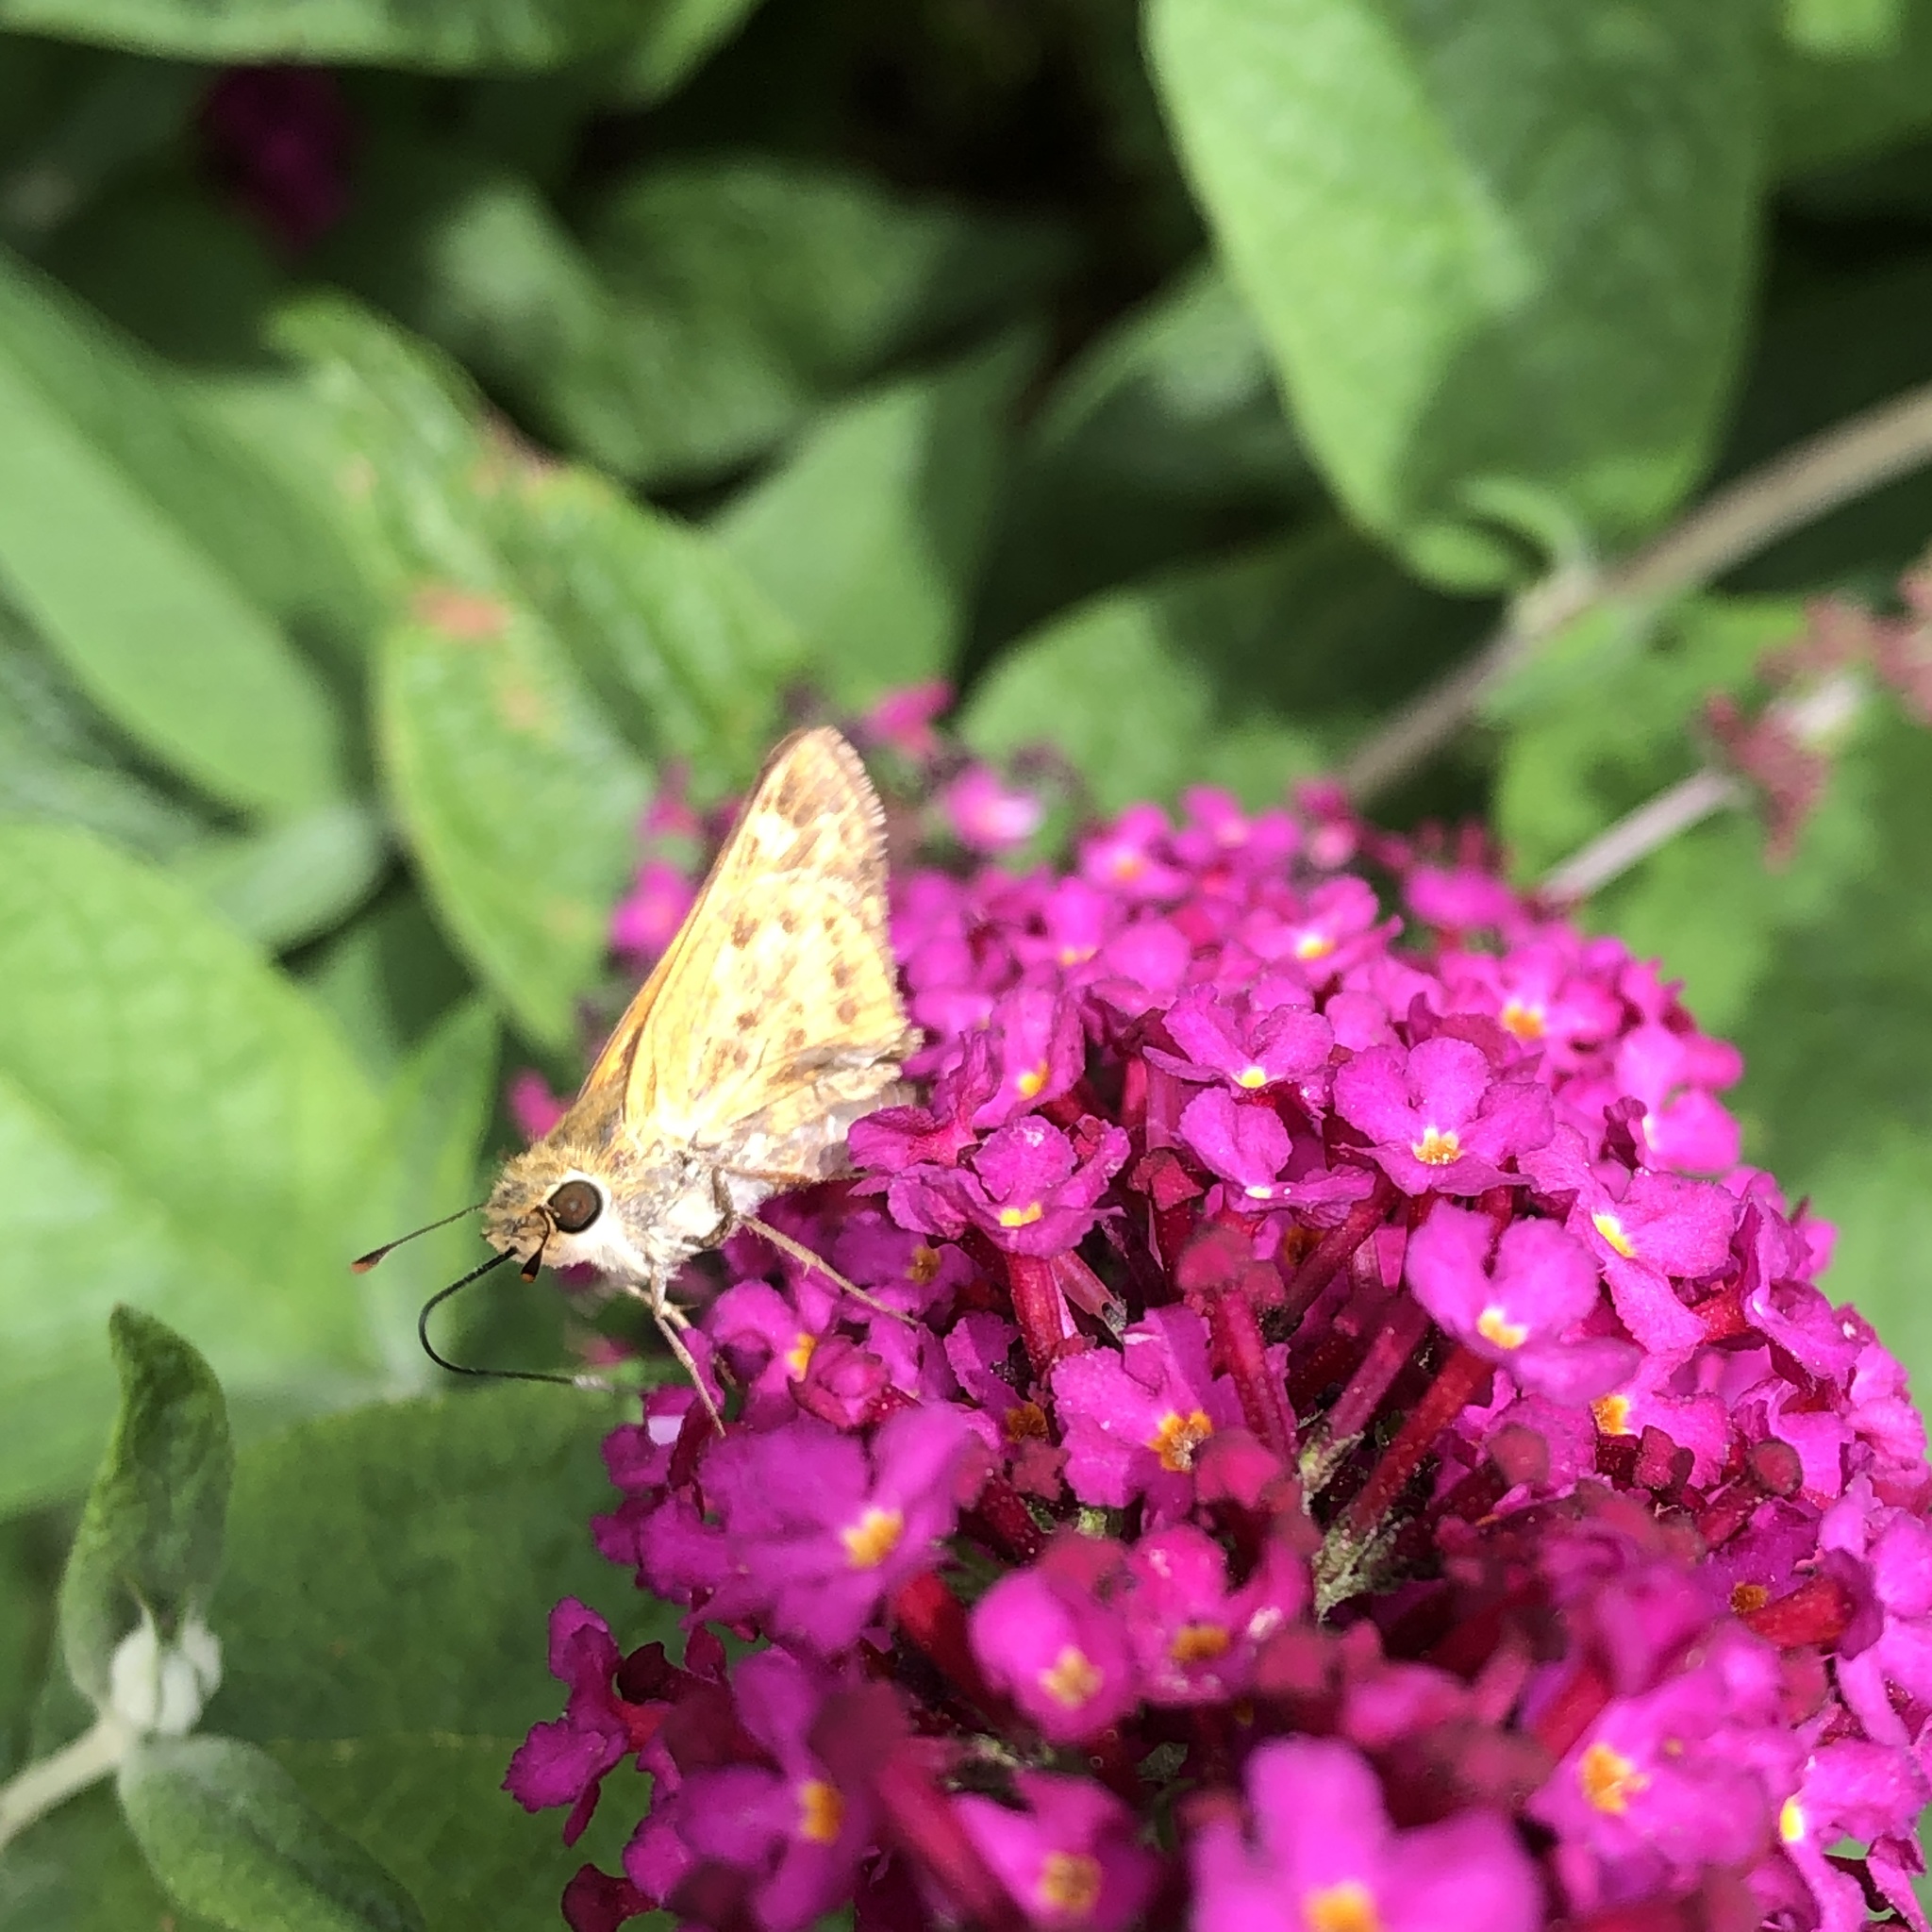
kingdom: Animalia
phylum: Arthropoda
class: Insecta
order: Lepidoptera
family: Hesperiidae
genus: Hylephila
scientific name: Hylephila phyleus
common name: Fiery skipper
